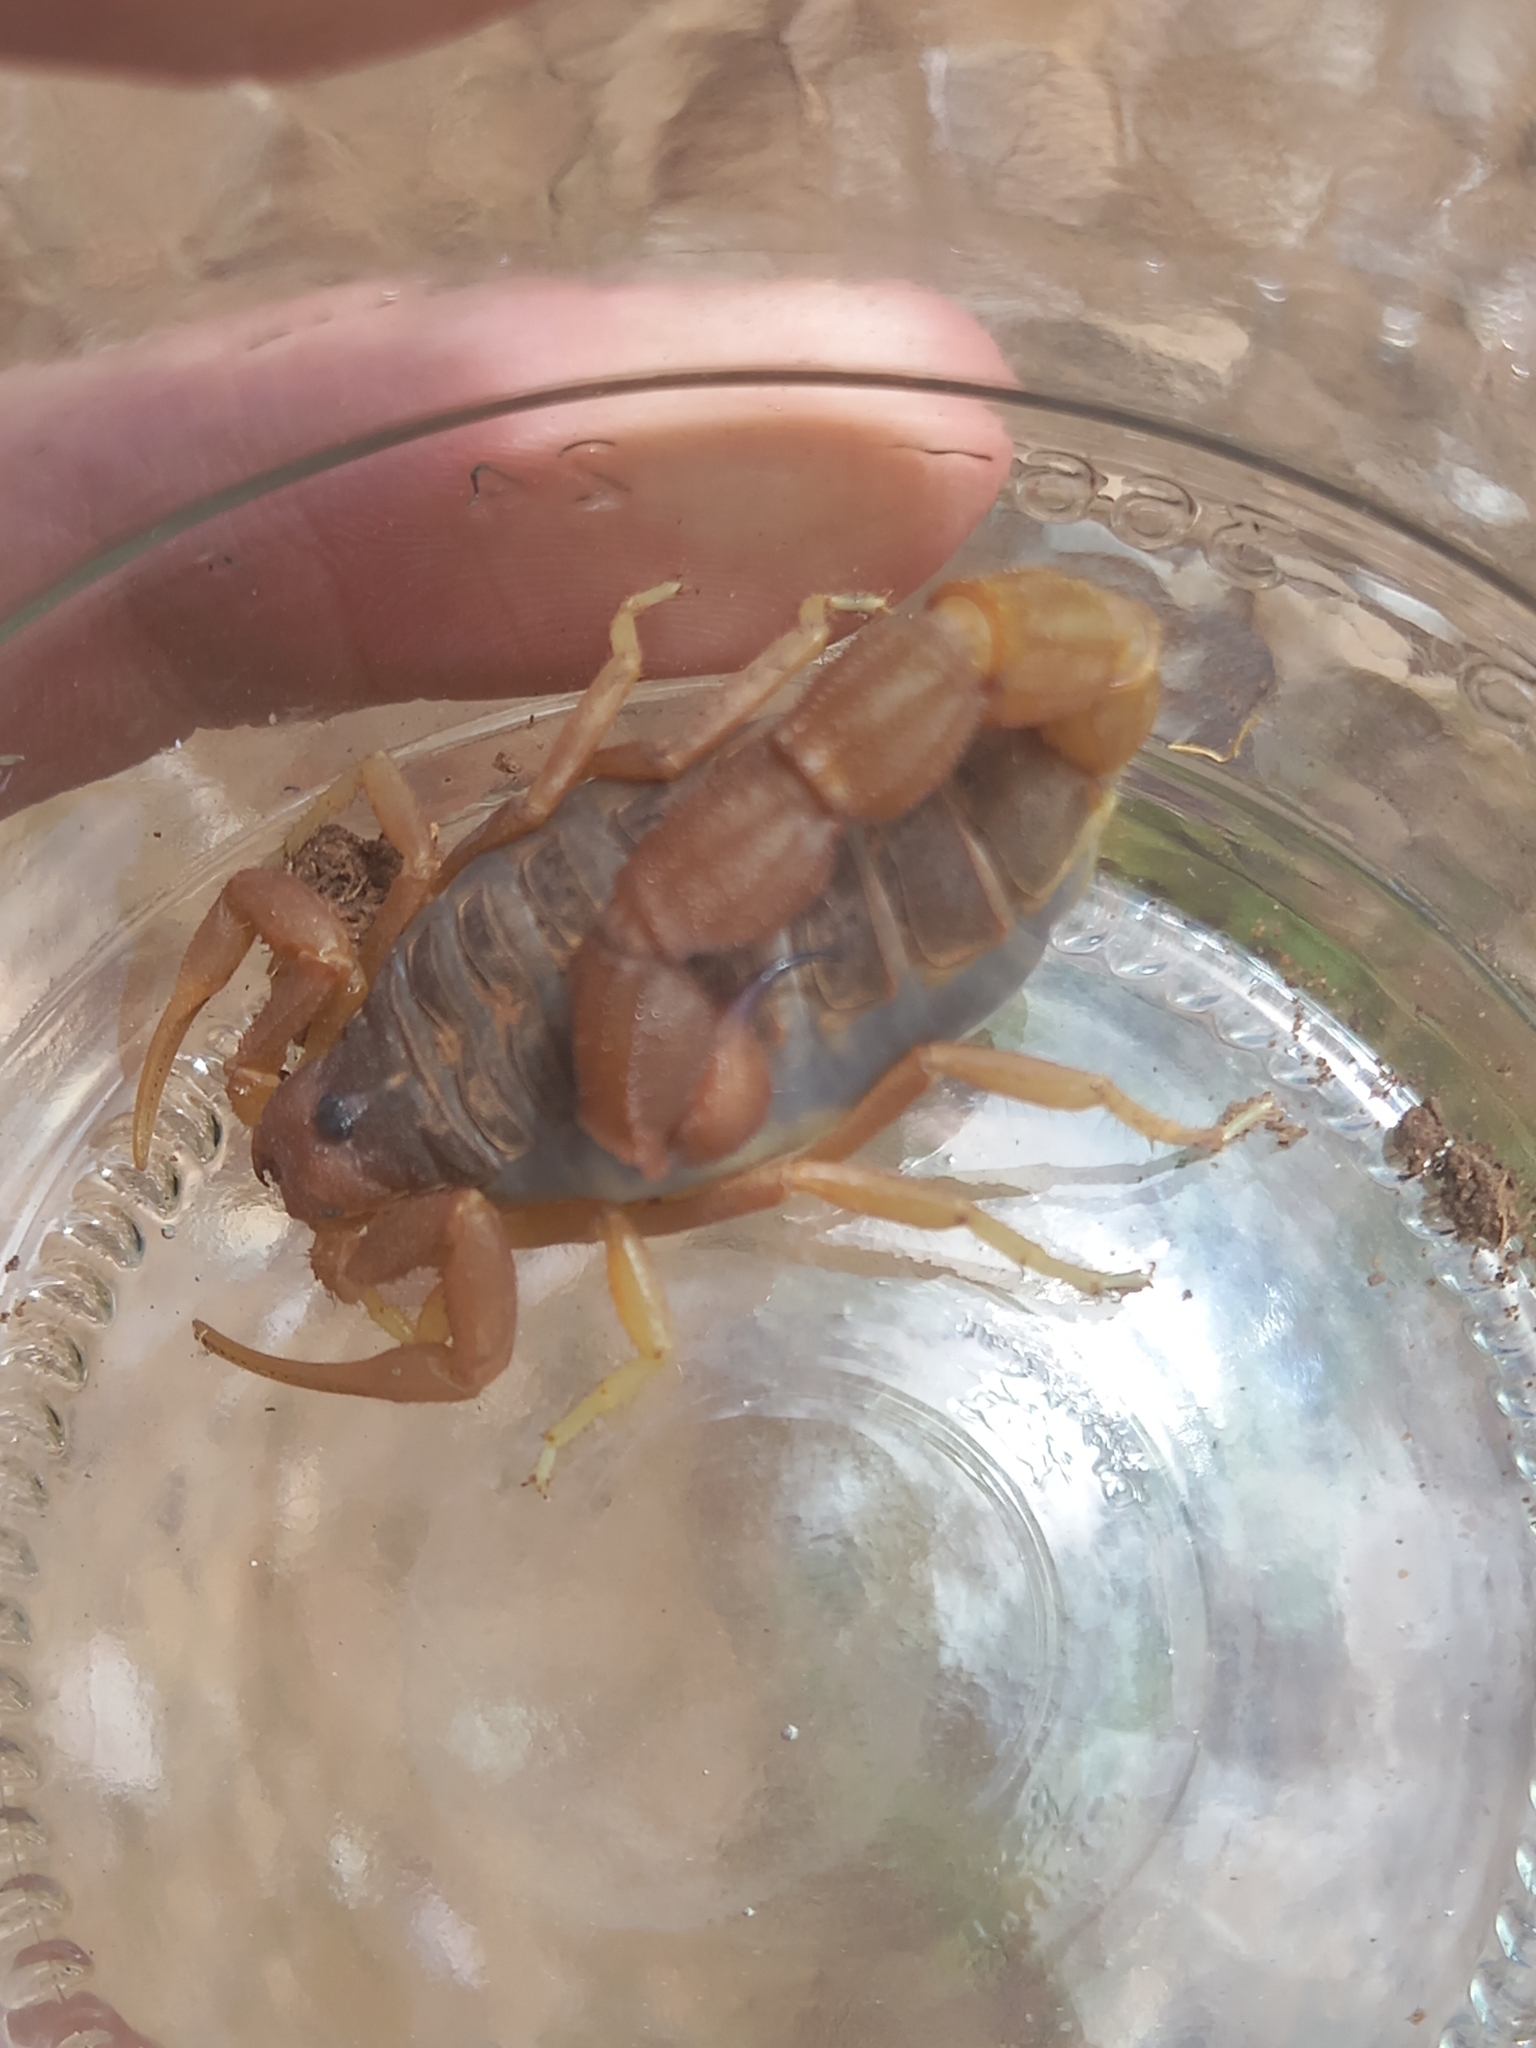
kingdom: Animalia
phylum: Arthropoda
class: Arachnida
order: Scorpiones
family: Buthidae
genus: Parabuthus
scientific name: Parabuthus planicauda
